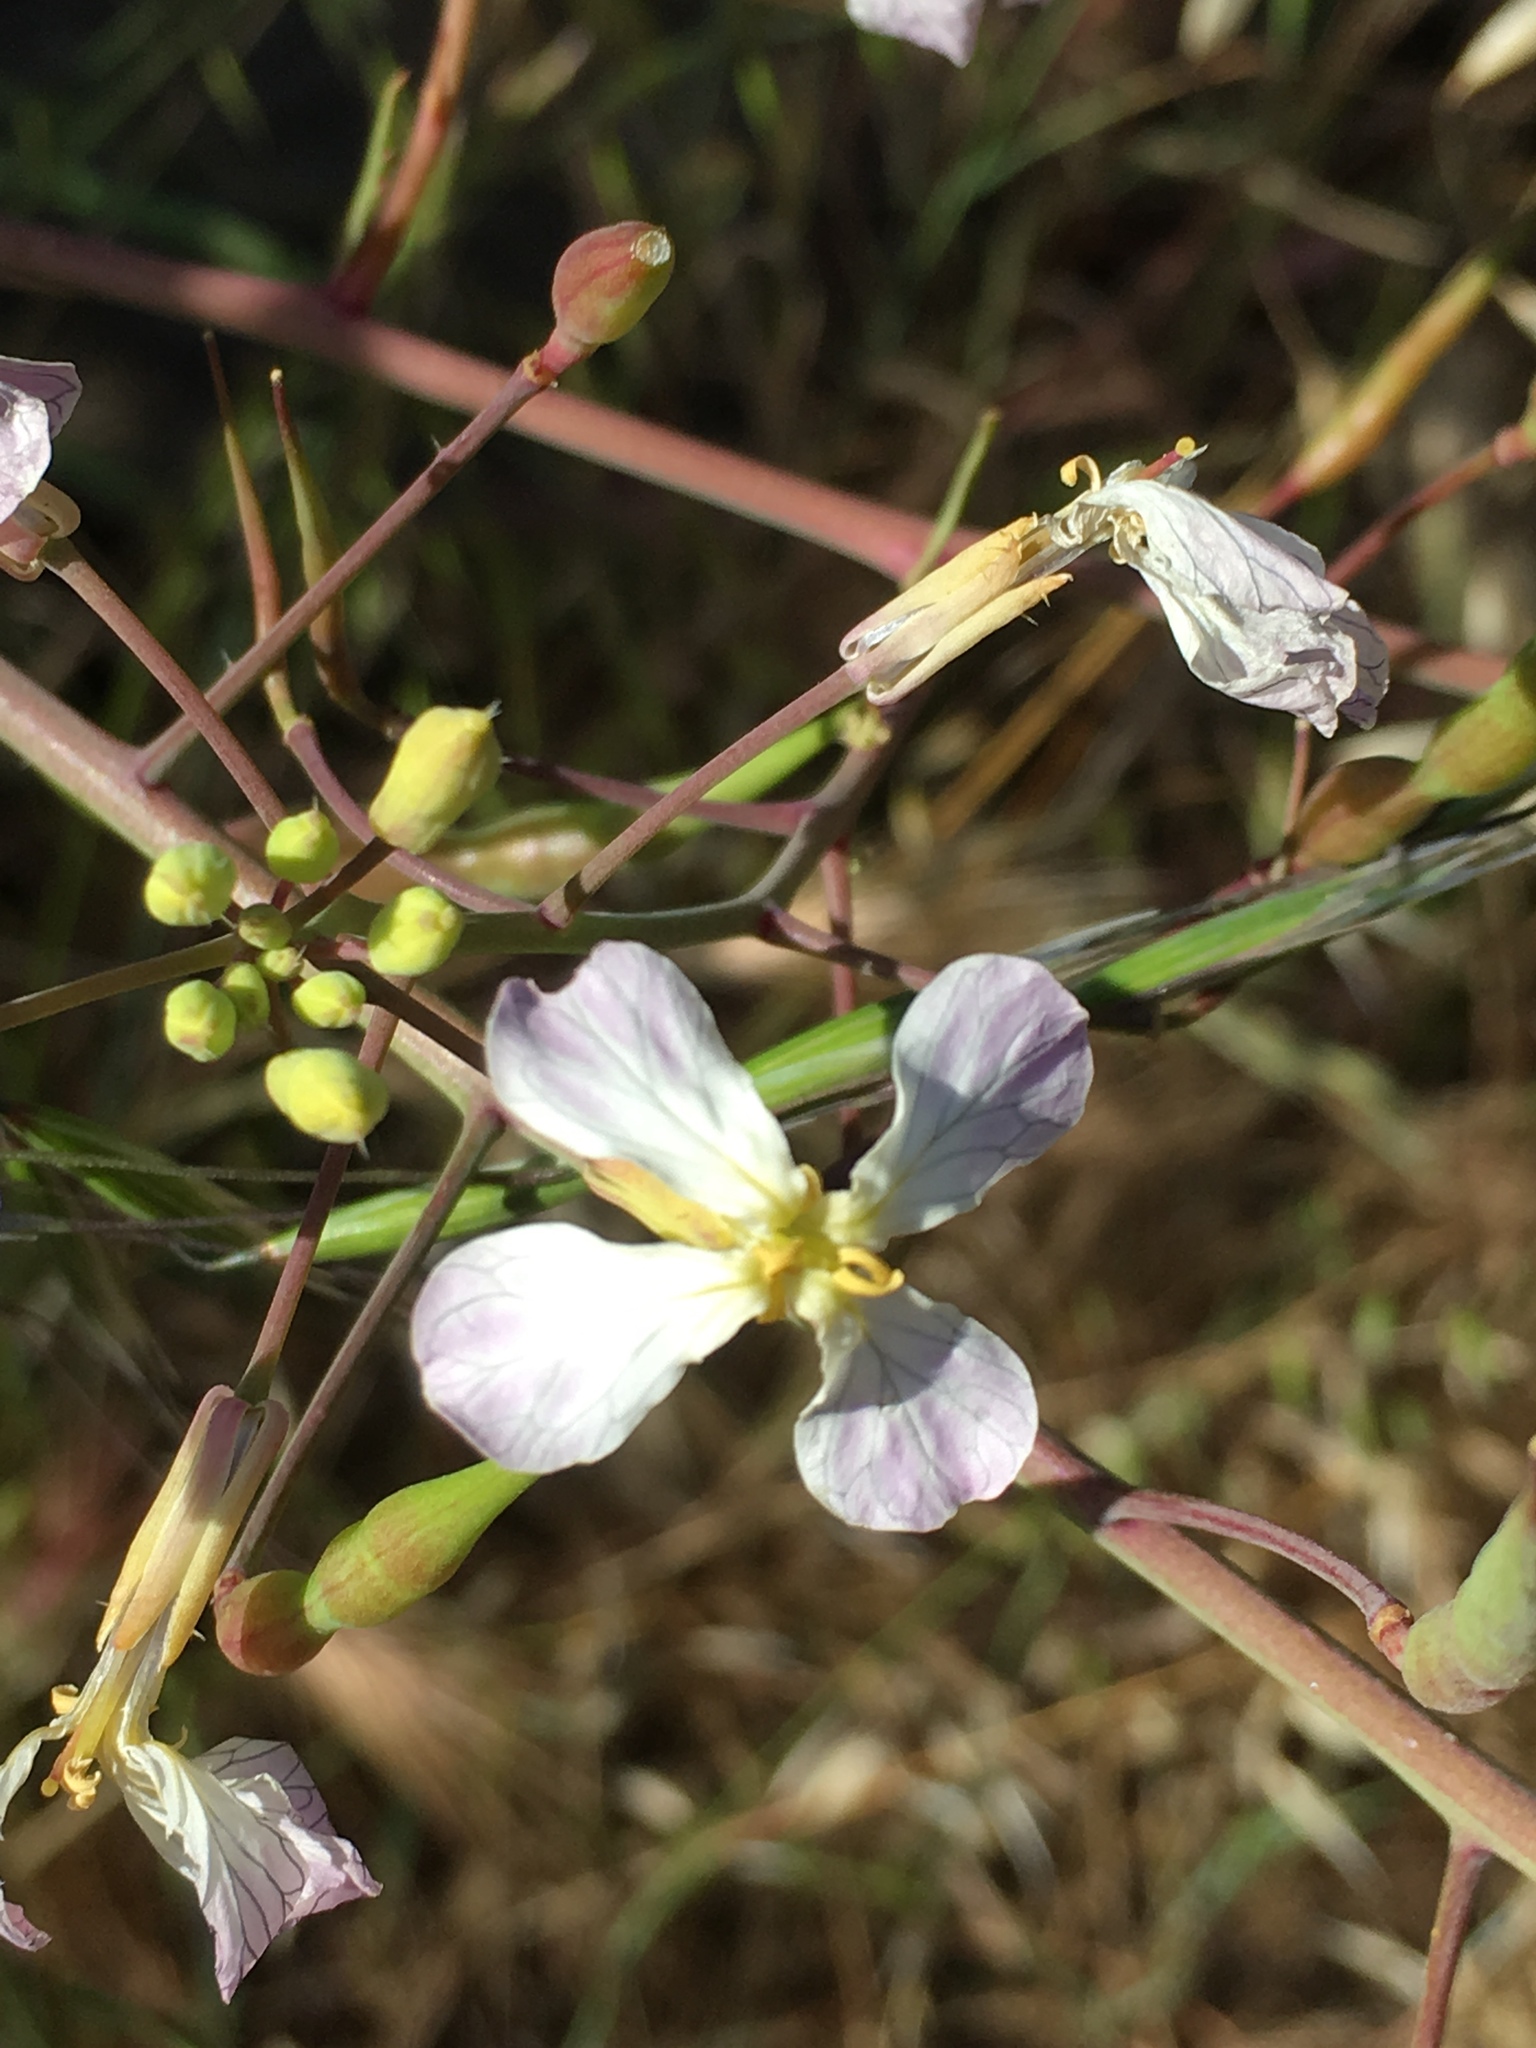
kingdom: Plantae
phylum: Tracheophyta
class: Magnoliopsida
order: Brassicales
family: Brassicaceae
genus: Raphanus
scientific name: Raphanus sativus
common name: Cultivated radish
